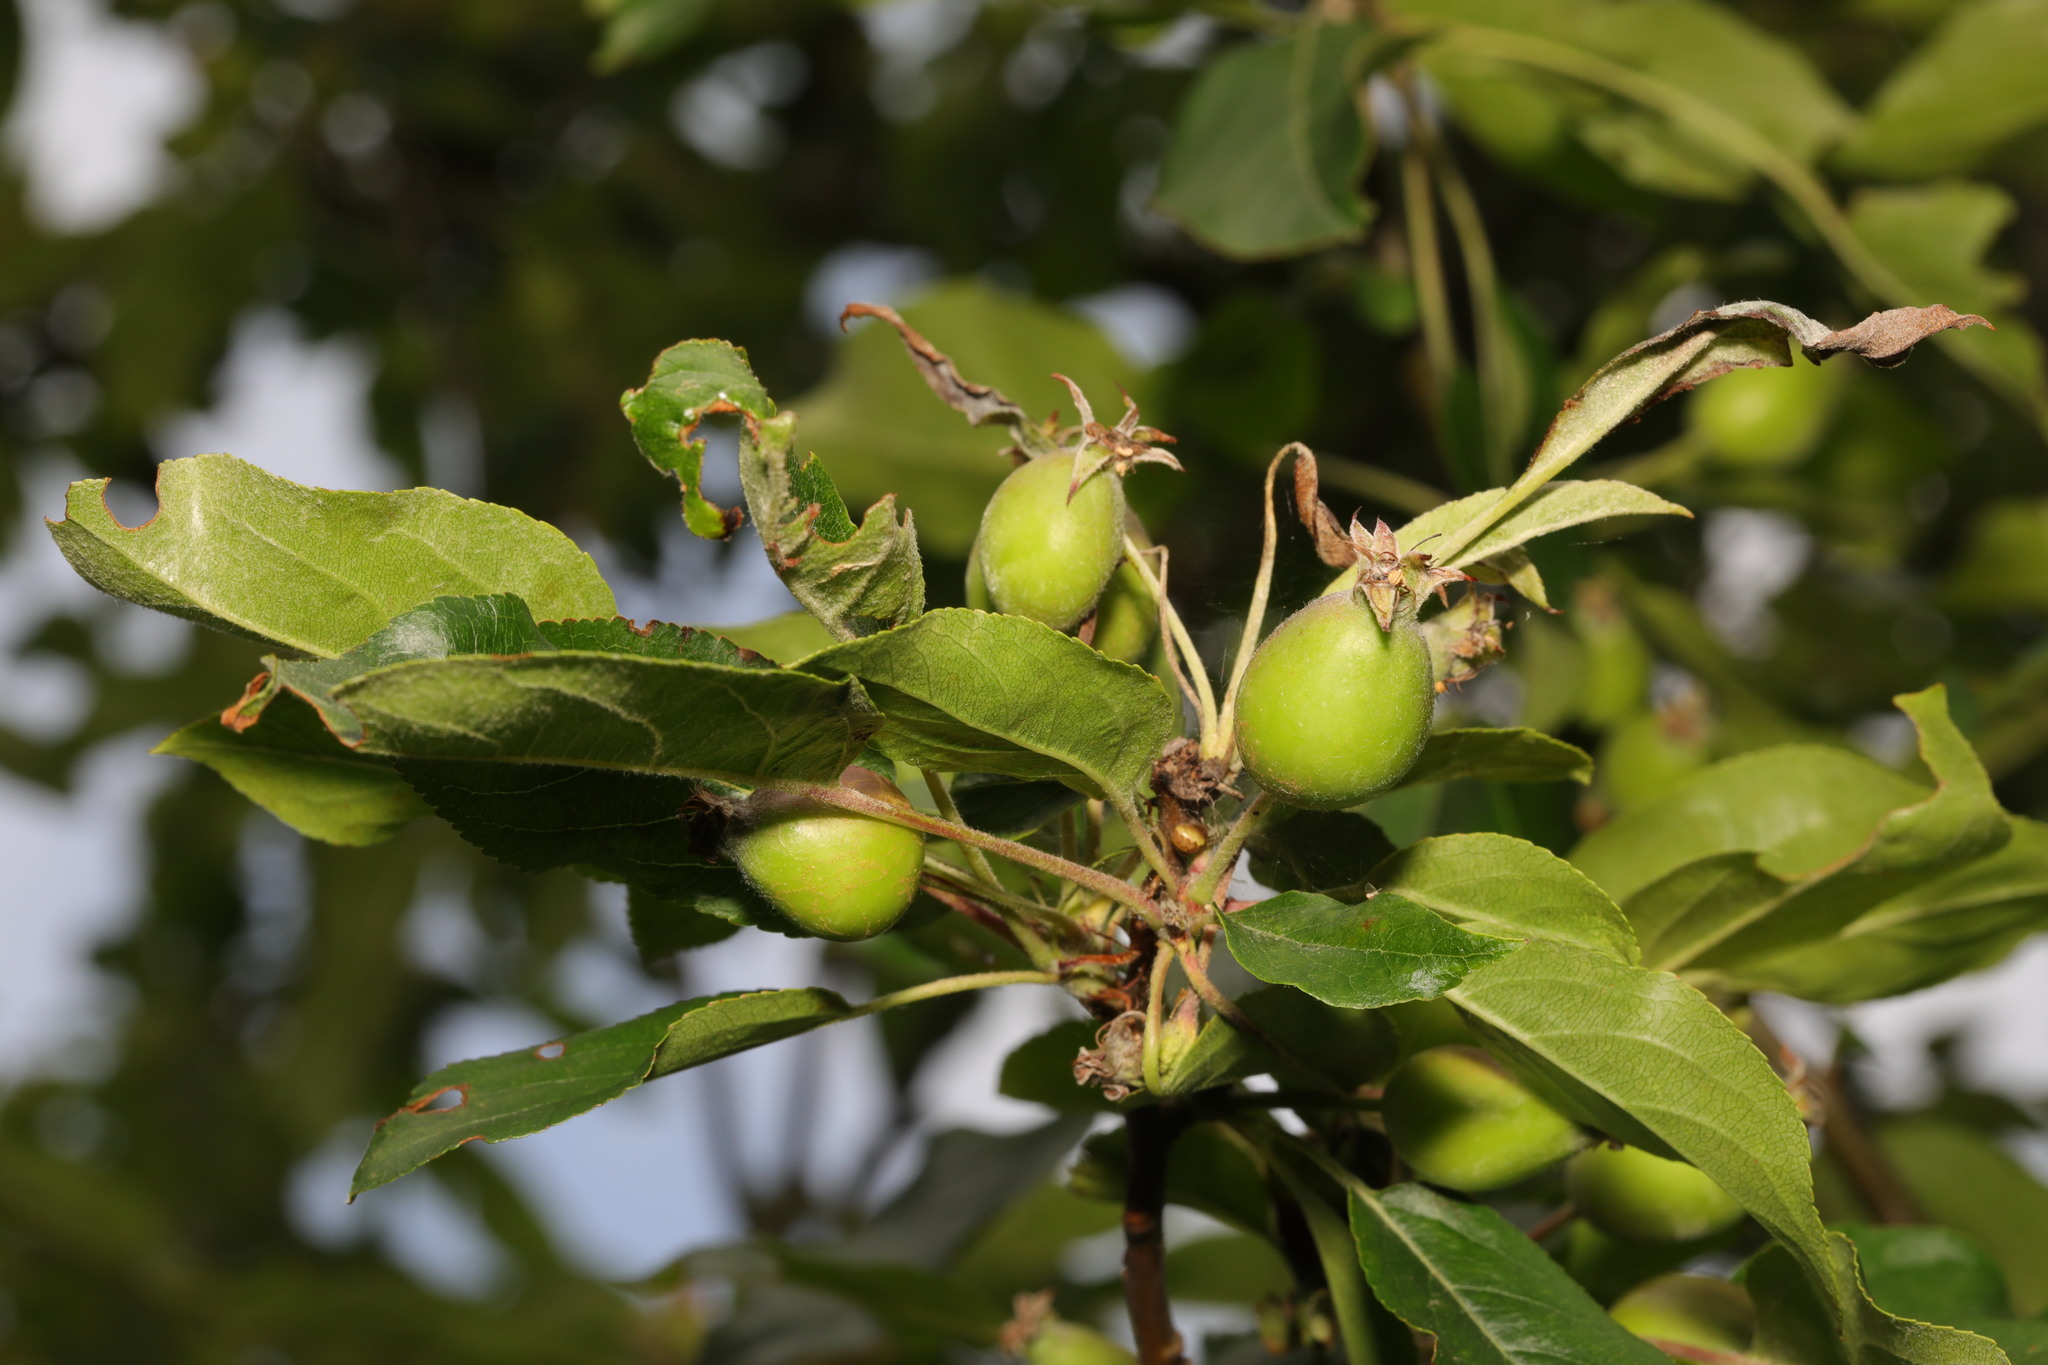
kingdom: Plantae
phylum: Tracheophyta
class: Magnoliopsida
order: Rosales
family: Rosaceae
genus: Malus
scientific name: Malus sylvestris
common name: Crab apple
